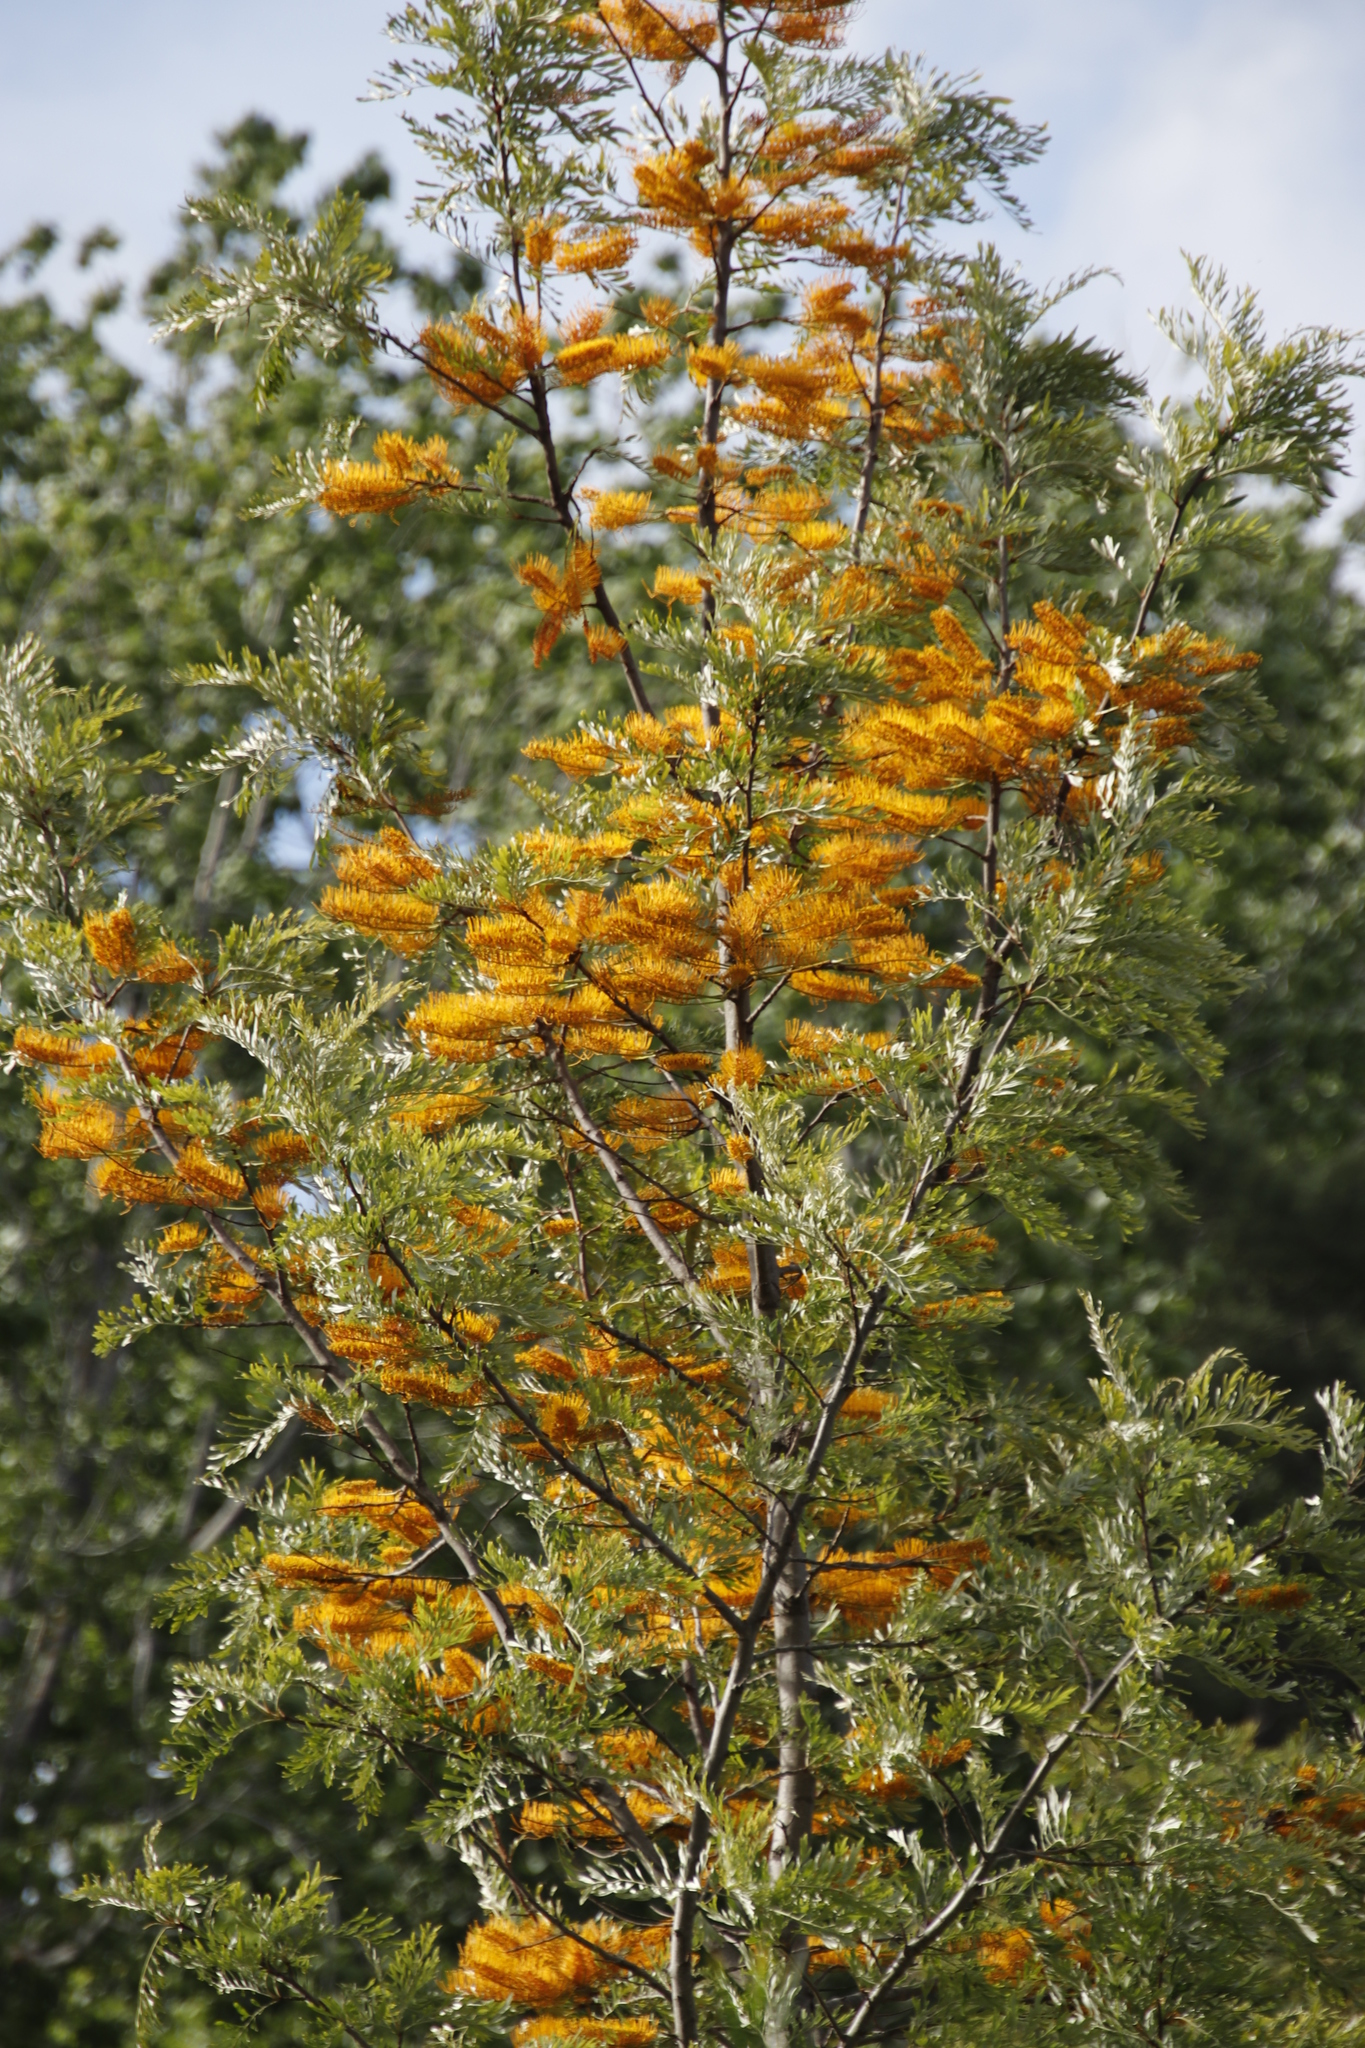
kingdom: Plantae
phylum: Tracheophyta
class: Magnoliopsida
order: Proteales
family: Proteaceae
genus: Grevillea
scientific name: Grevillea robusta
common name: Silkoak
